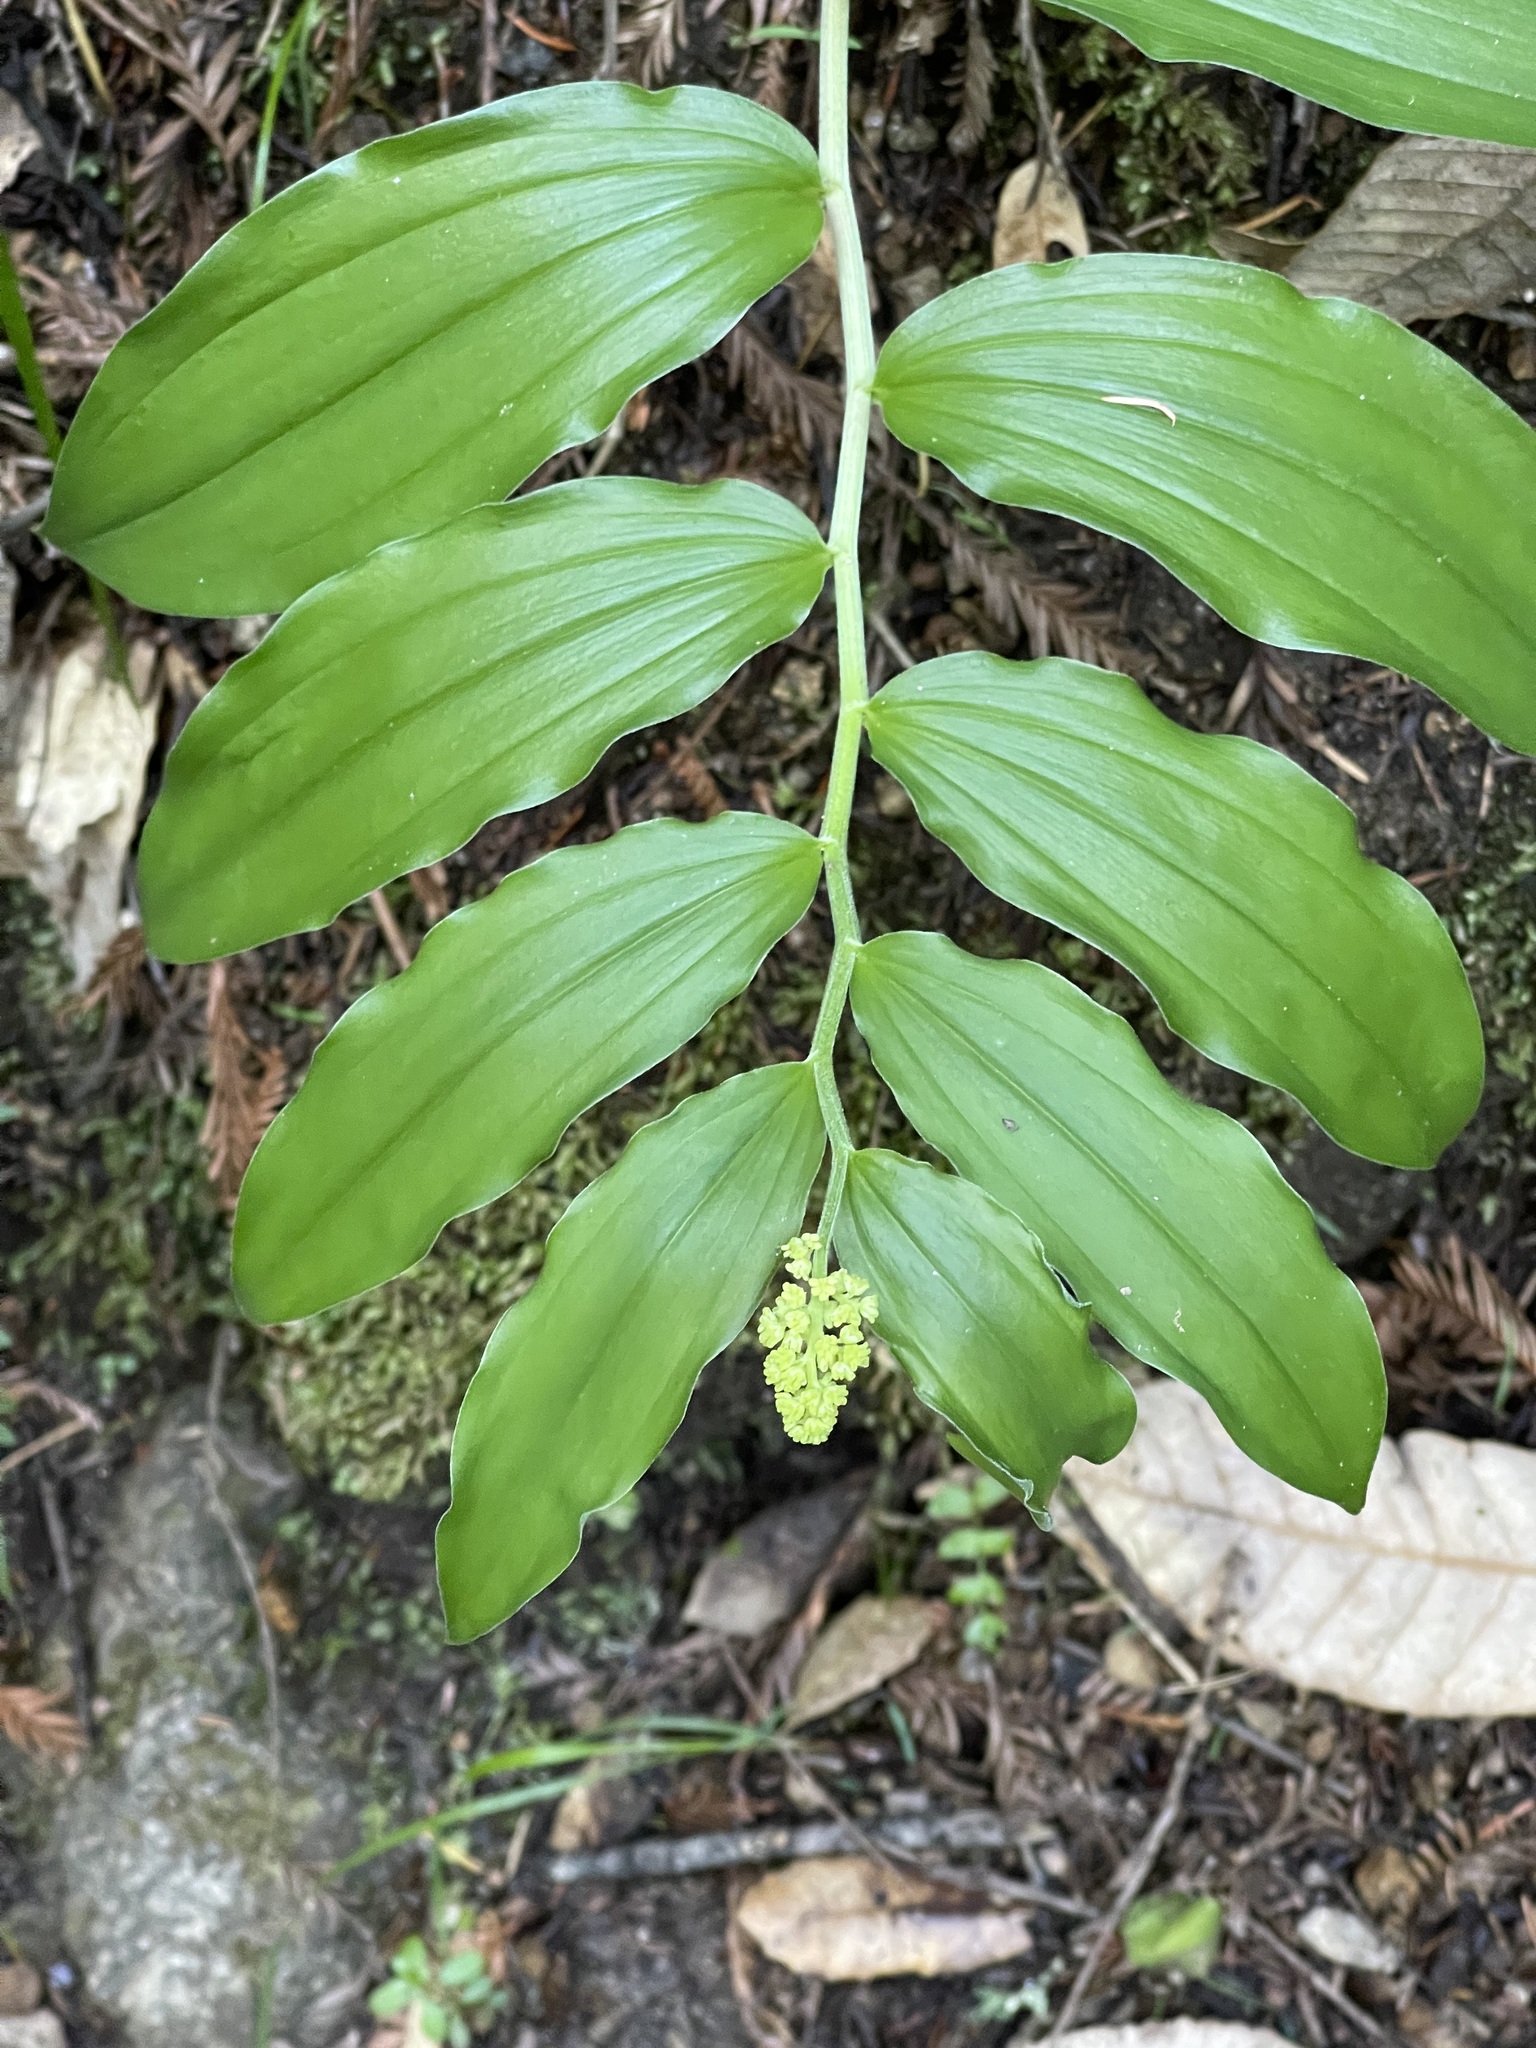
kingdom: Plantae
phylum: Tracheophyta
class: Liliopsida
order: Asparagales
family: Asparagaceae
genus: Maianthemum
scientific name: Maianthemum racemosum
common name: False spikenard
